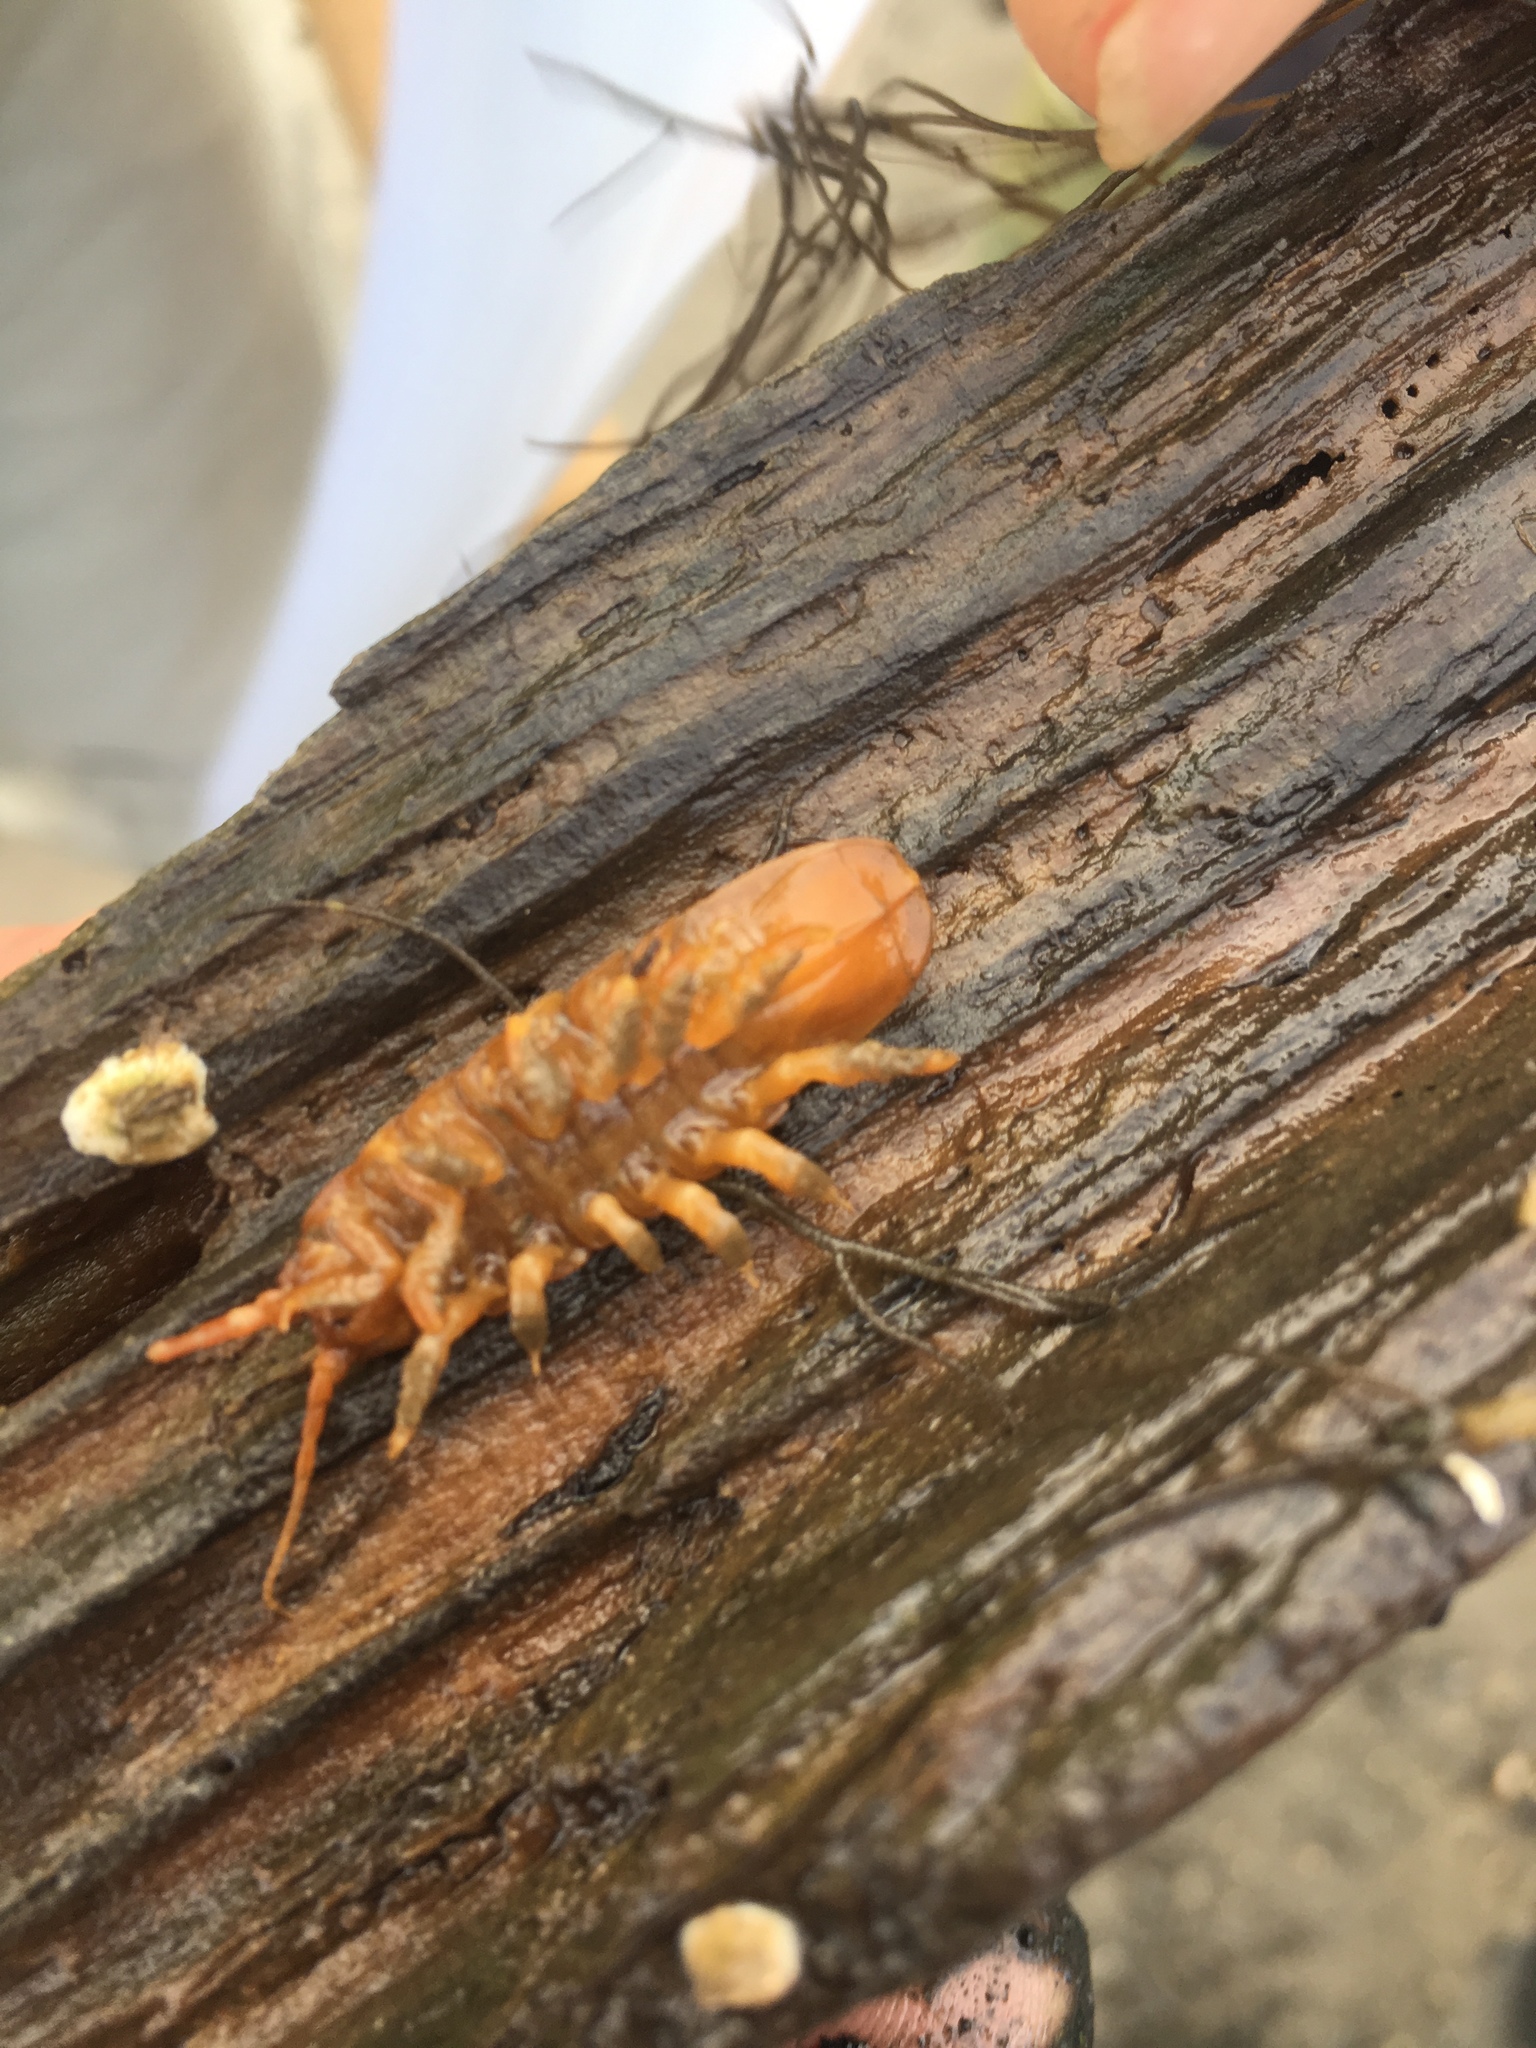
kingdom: Animalia
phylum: Arthropoda
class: Malacostraca
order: Isopoda
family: Idoteidae
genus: Pentidotea
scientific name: Pentidotea wosnesenskii
